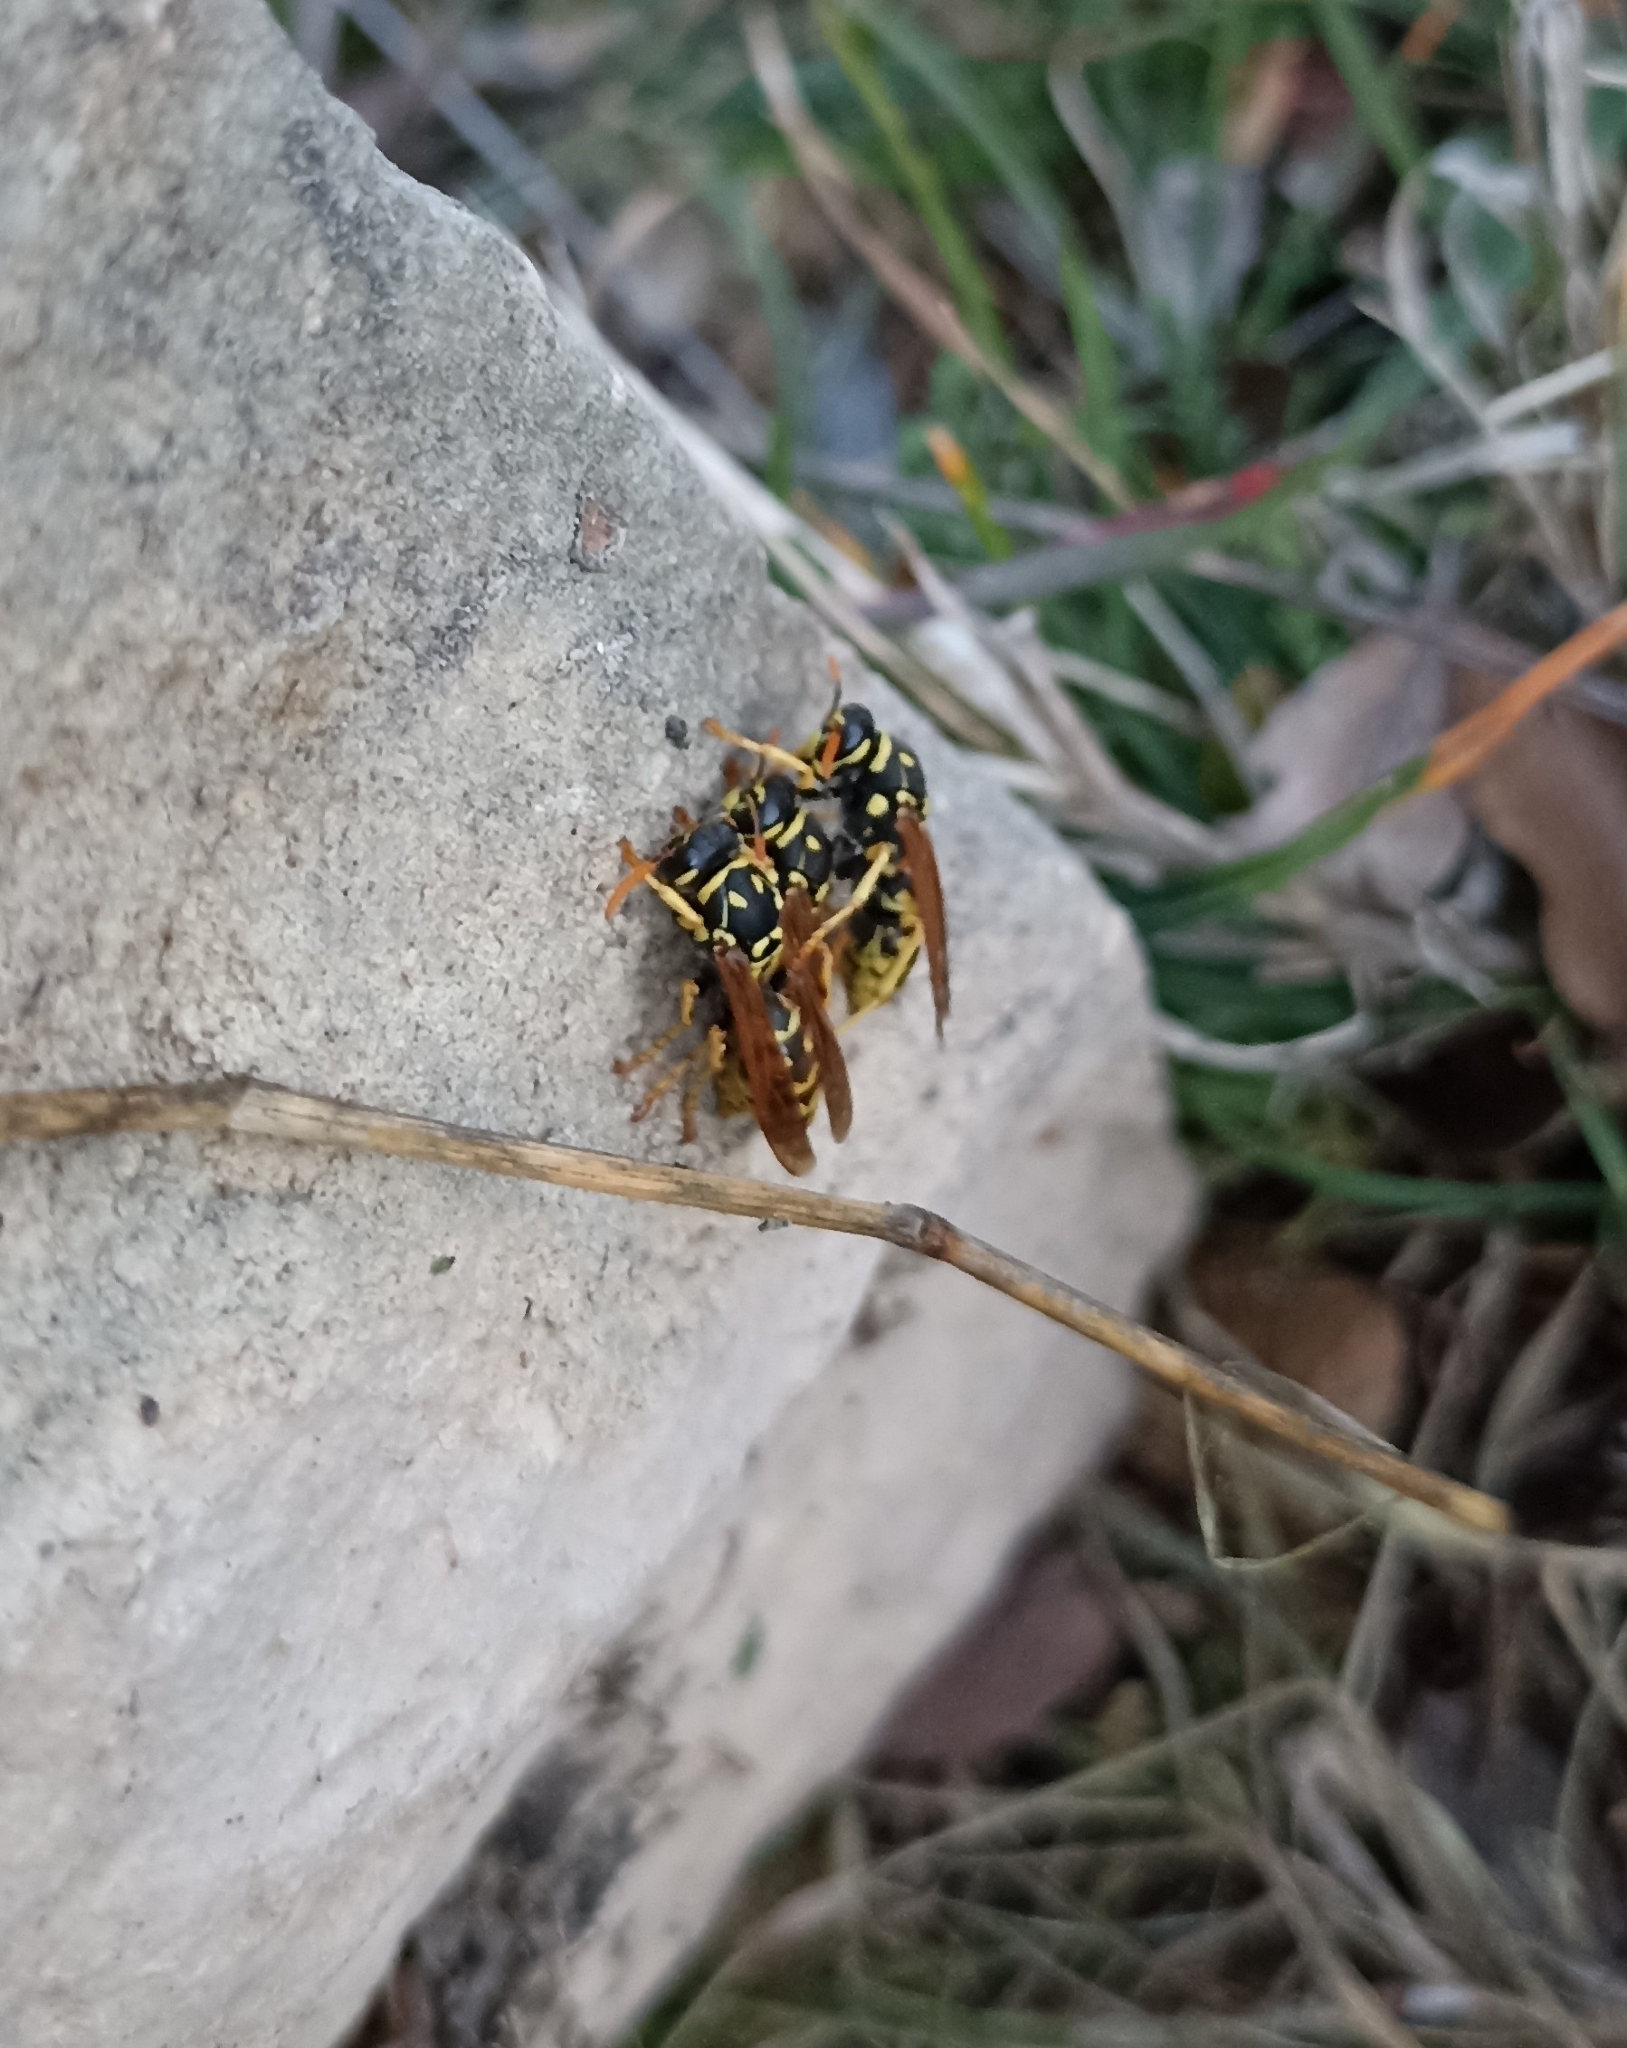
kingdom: Animalia
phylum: Arthropoda
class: Insecta
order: Hymenoptera
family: Eumenidae
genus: Polistes
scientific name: Polistes dominula
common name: Paper wasp
